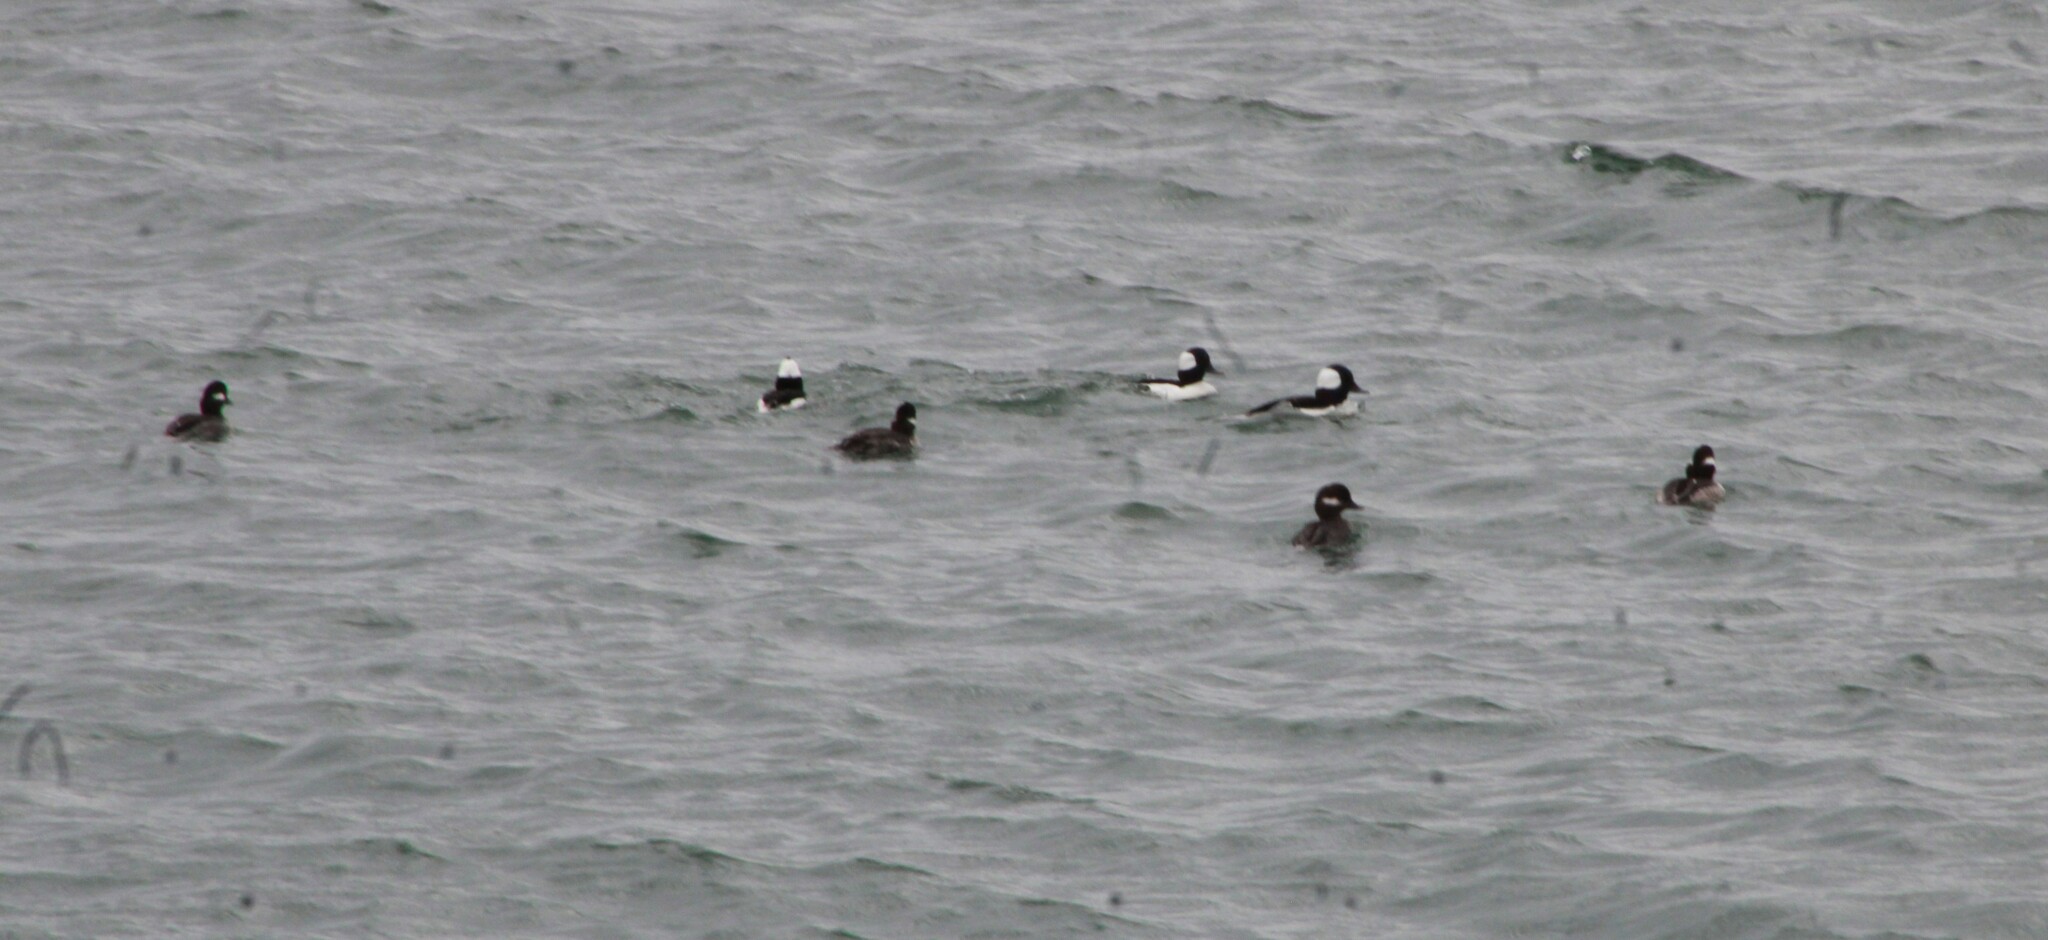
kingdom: Animalia
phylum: Chordata
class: Aves
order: Anseriformes
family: Anatidae
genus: Bucephala
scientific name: Bucephala albeola
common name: Bufflehead
